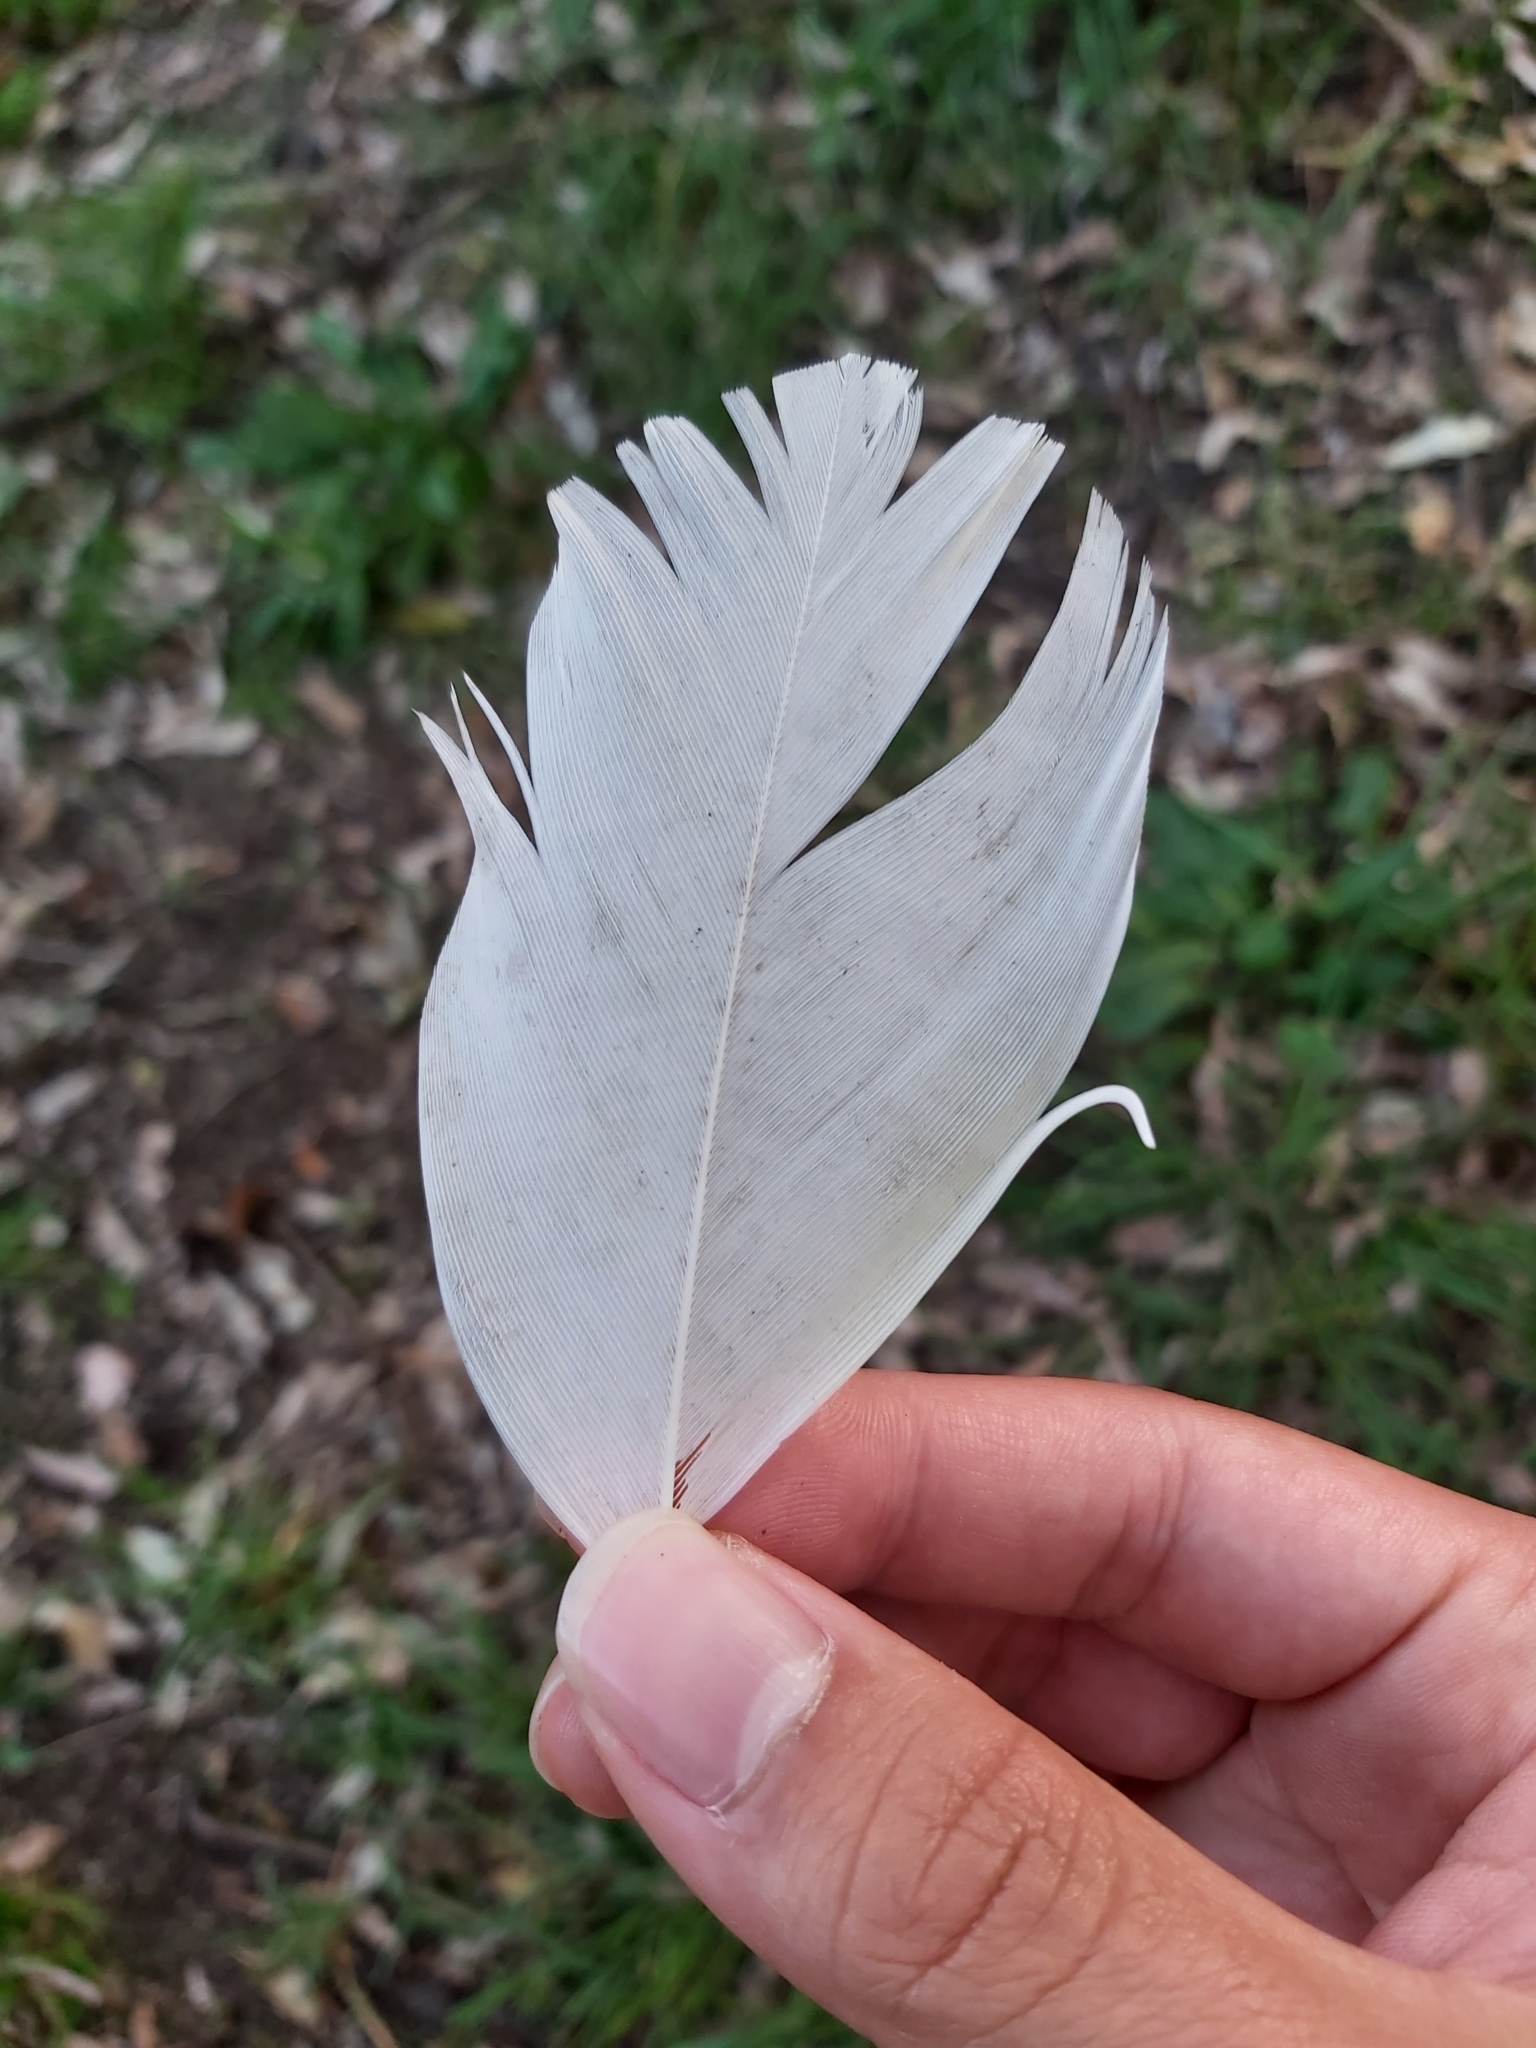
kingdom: Animalia
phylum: Chordata
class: Aves
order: Psittaciformes
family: Psittacidae
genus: Cacatua
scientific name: Cacatua galerita
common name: Sulphur-crested cockatoo
